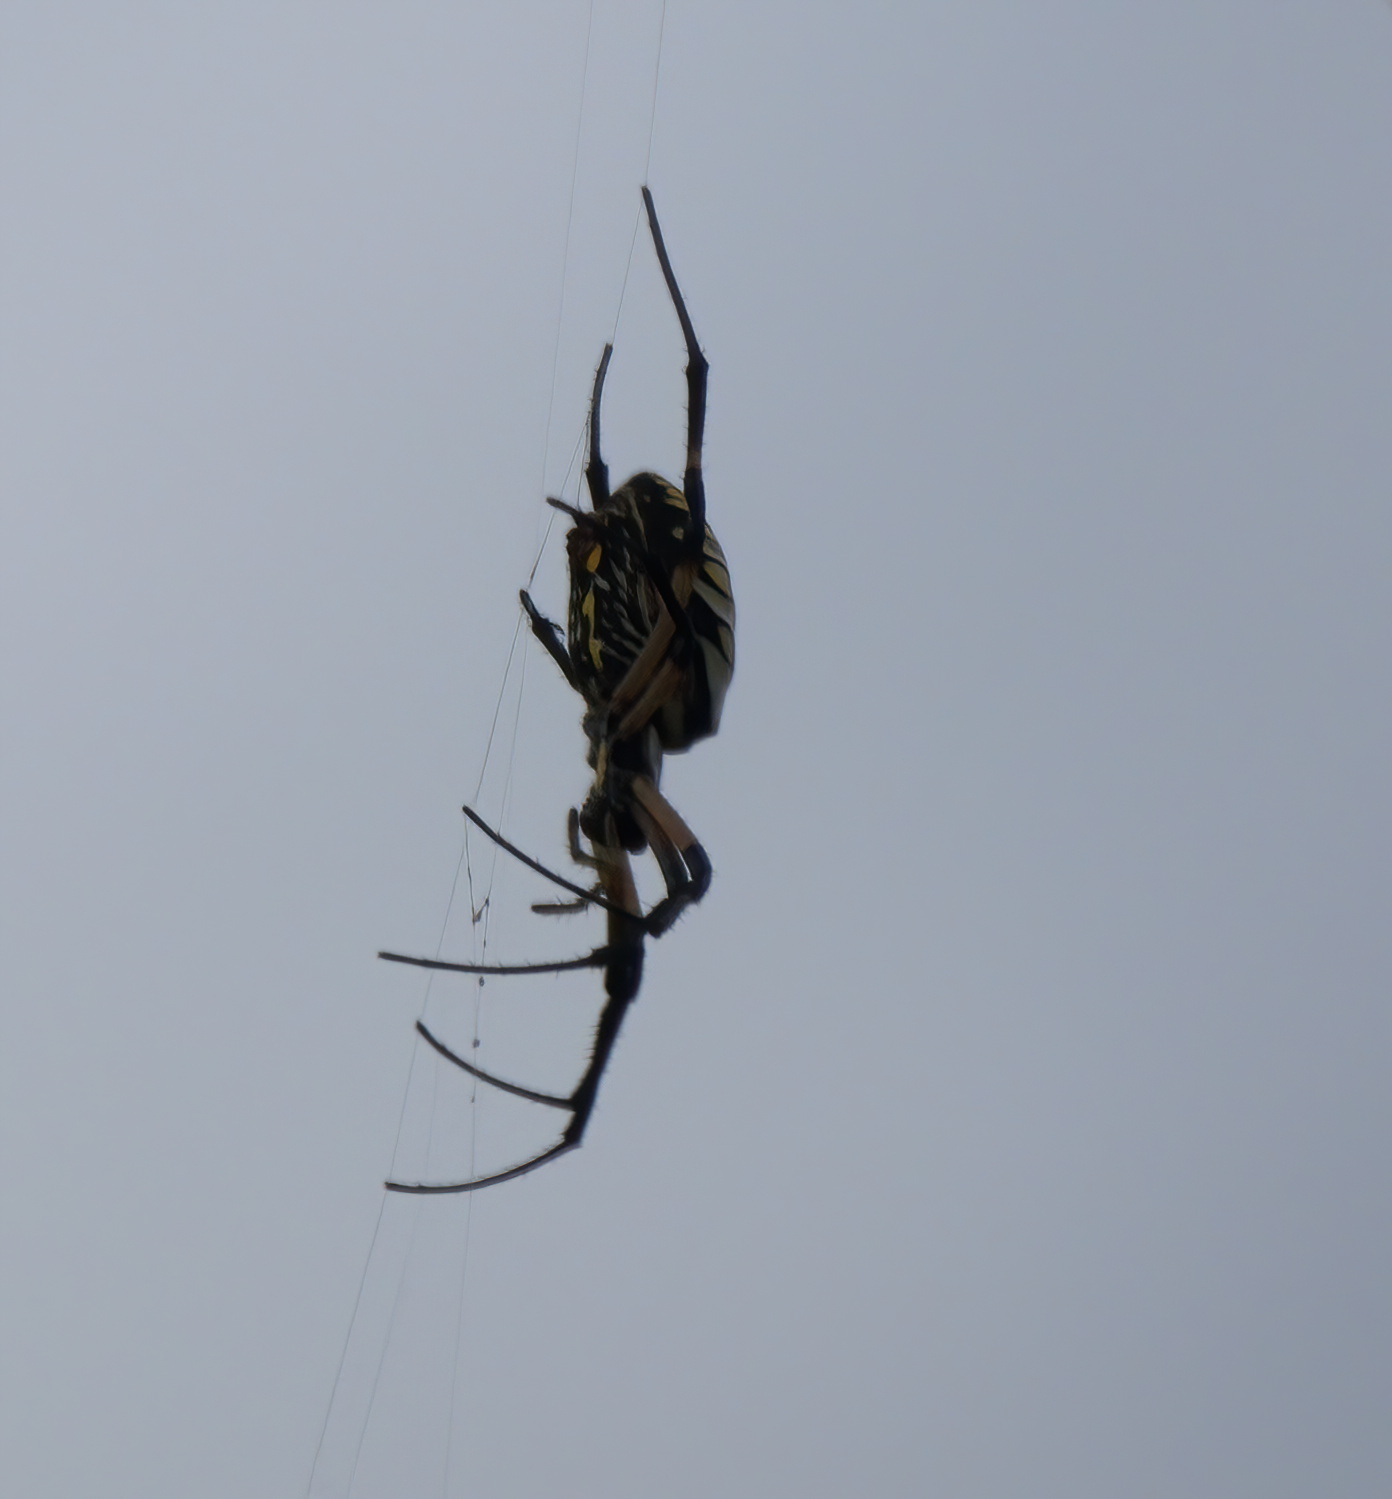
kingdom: Animalia
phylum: Arthropoda
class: Arachnida
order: Araneae
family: Araneidae
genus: Argiope
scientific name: Argiope aurantia
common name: Orb weavers
